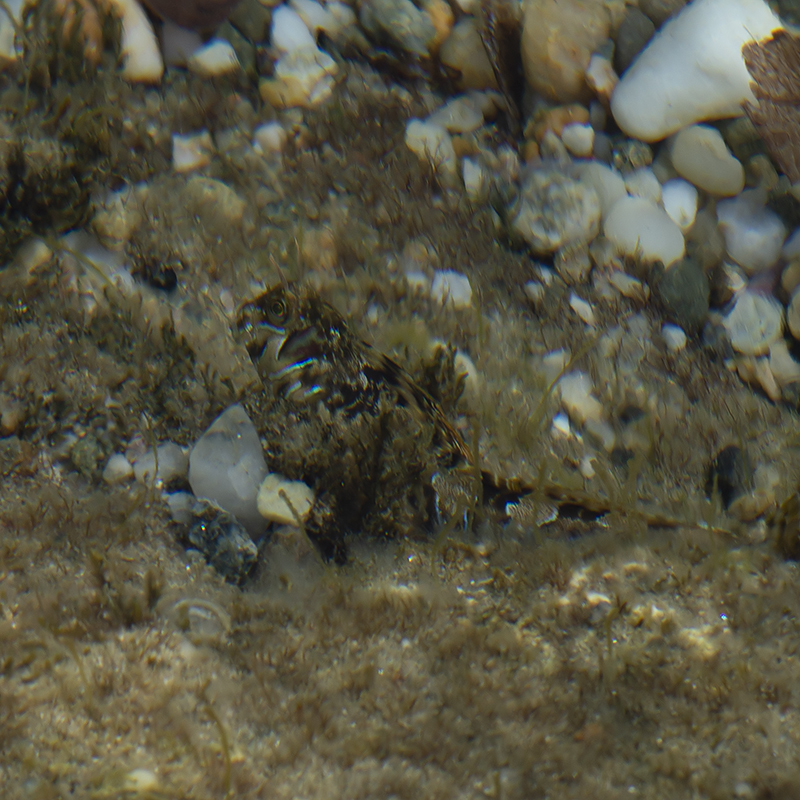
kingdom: Animalia
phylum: Chordata
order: Perciformes
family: Blenniidae
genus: Aidablennius
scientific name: Aidablennius sphynx
